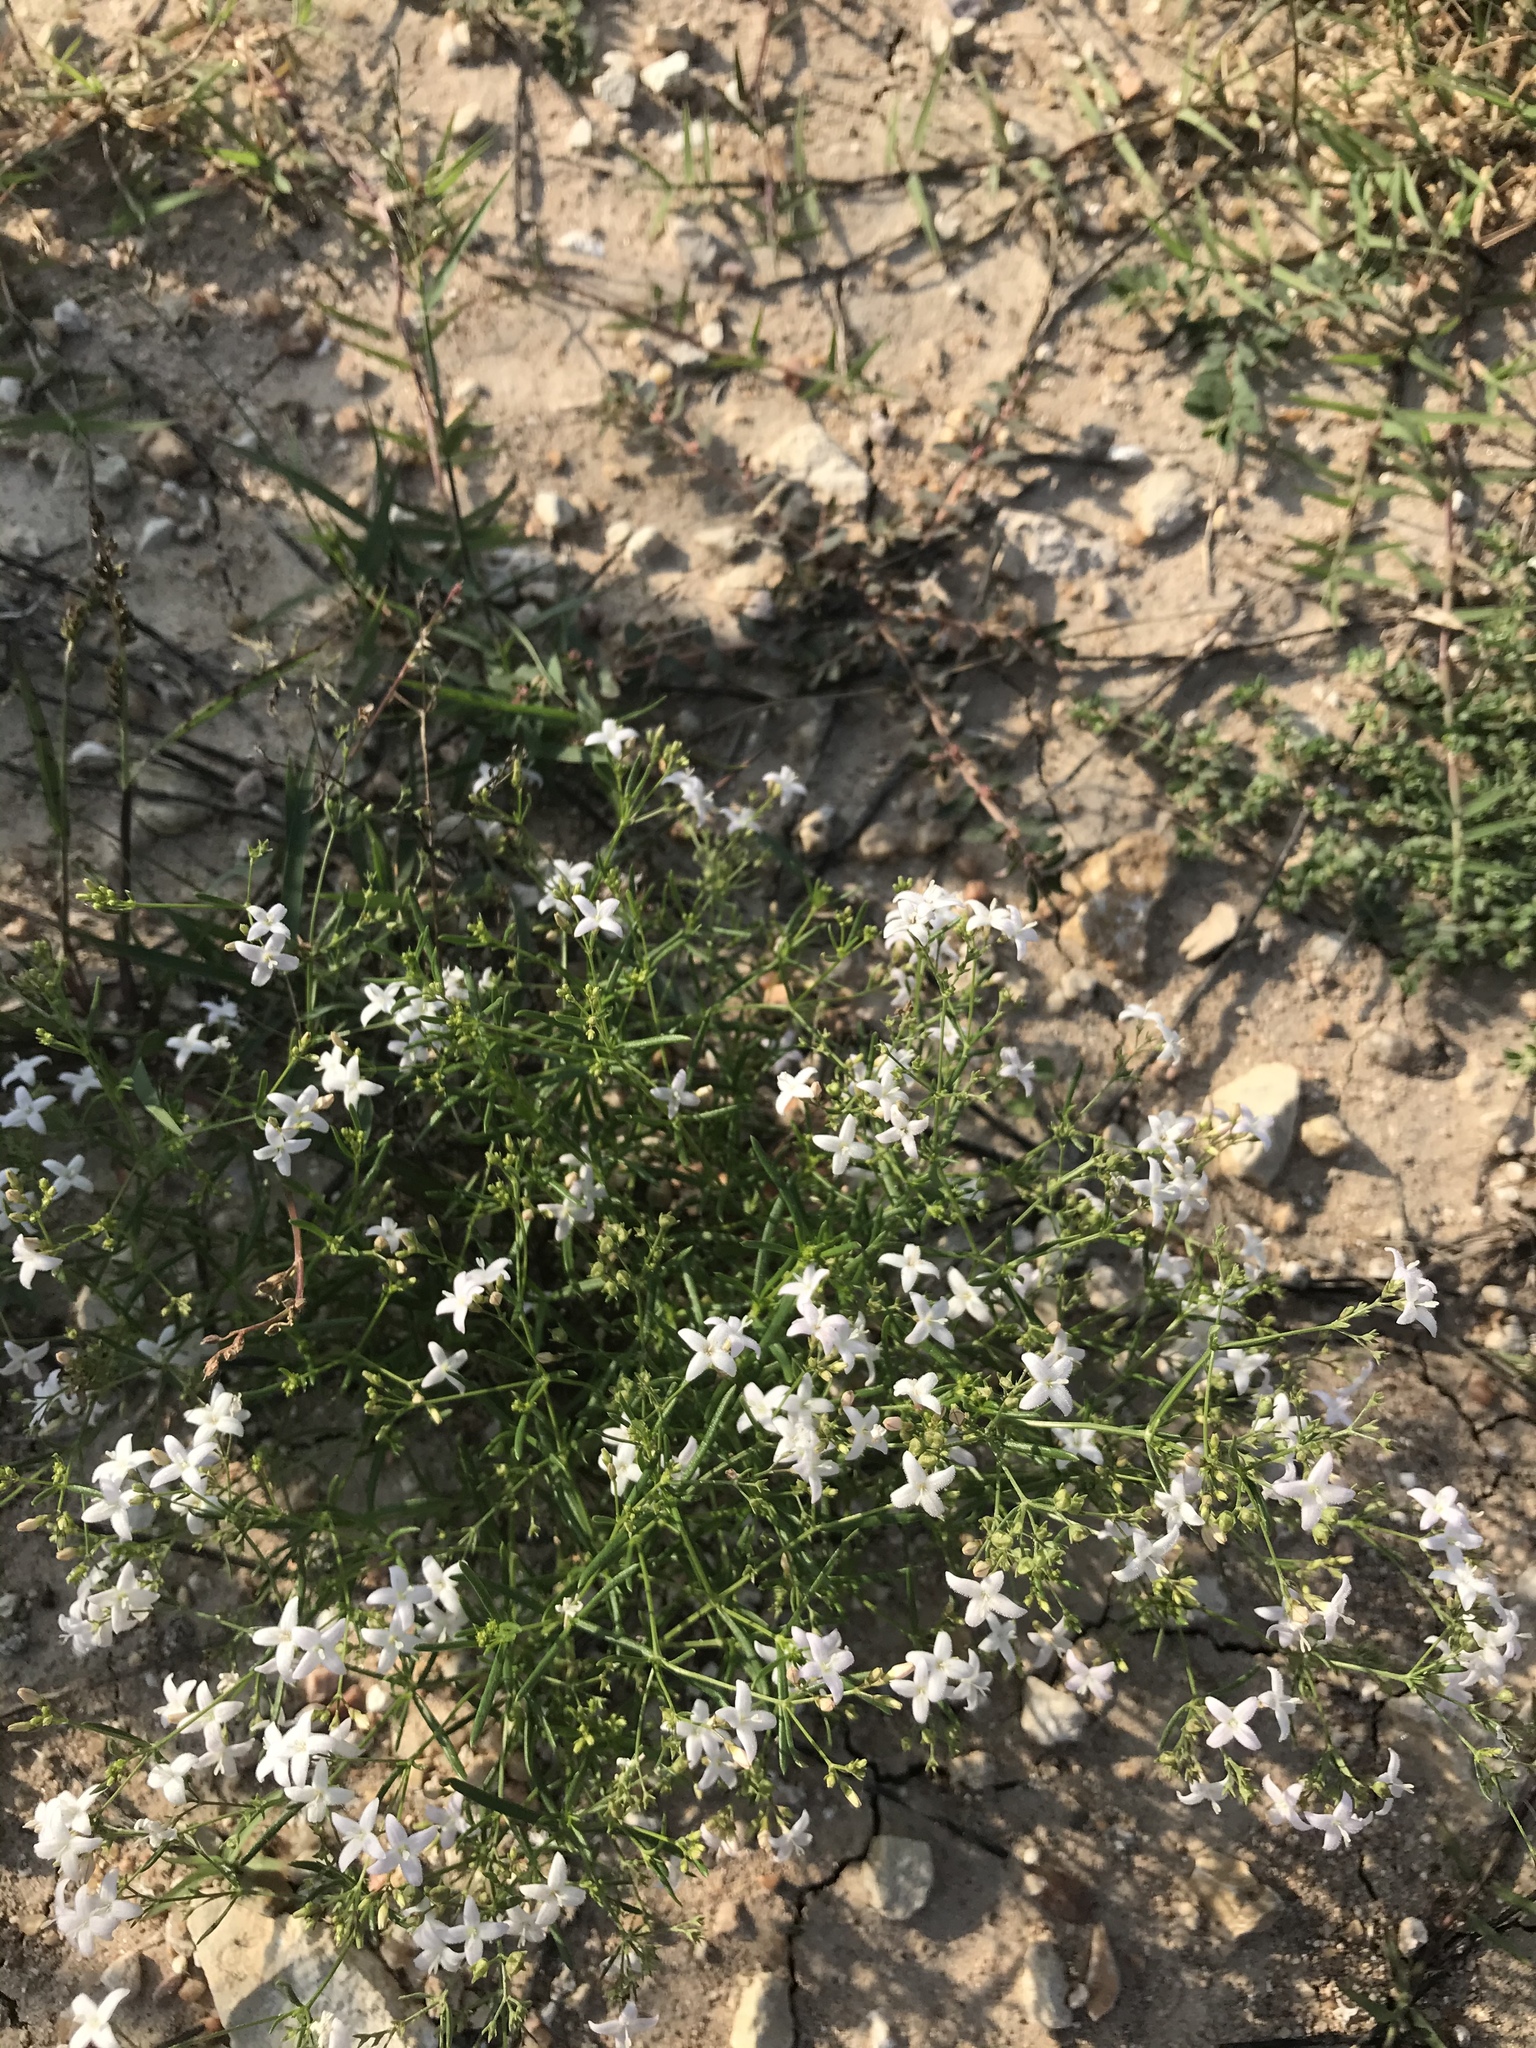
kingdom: Plantae
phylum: Tracheophyta
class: Magnoliopsida
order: Gentianales
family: Rubiaceae
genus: Stenaria
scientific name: Stenaria nigricans
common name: Diamondflowers
